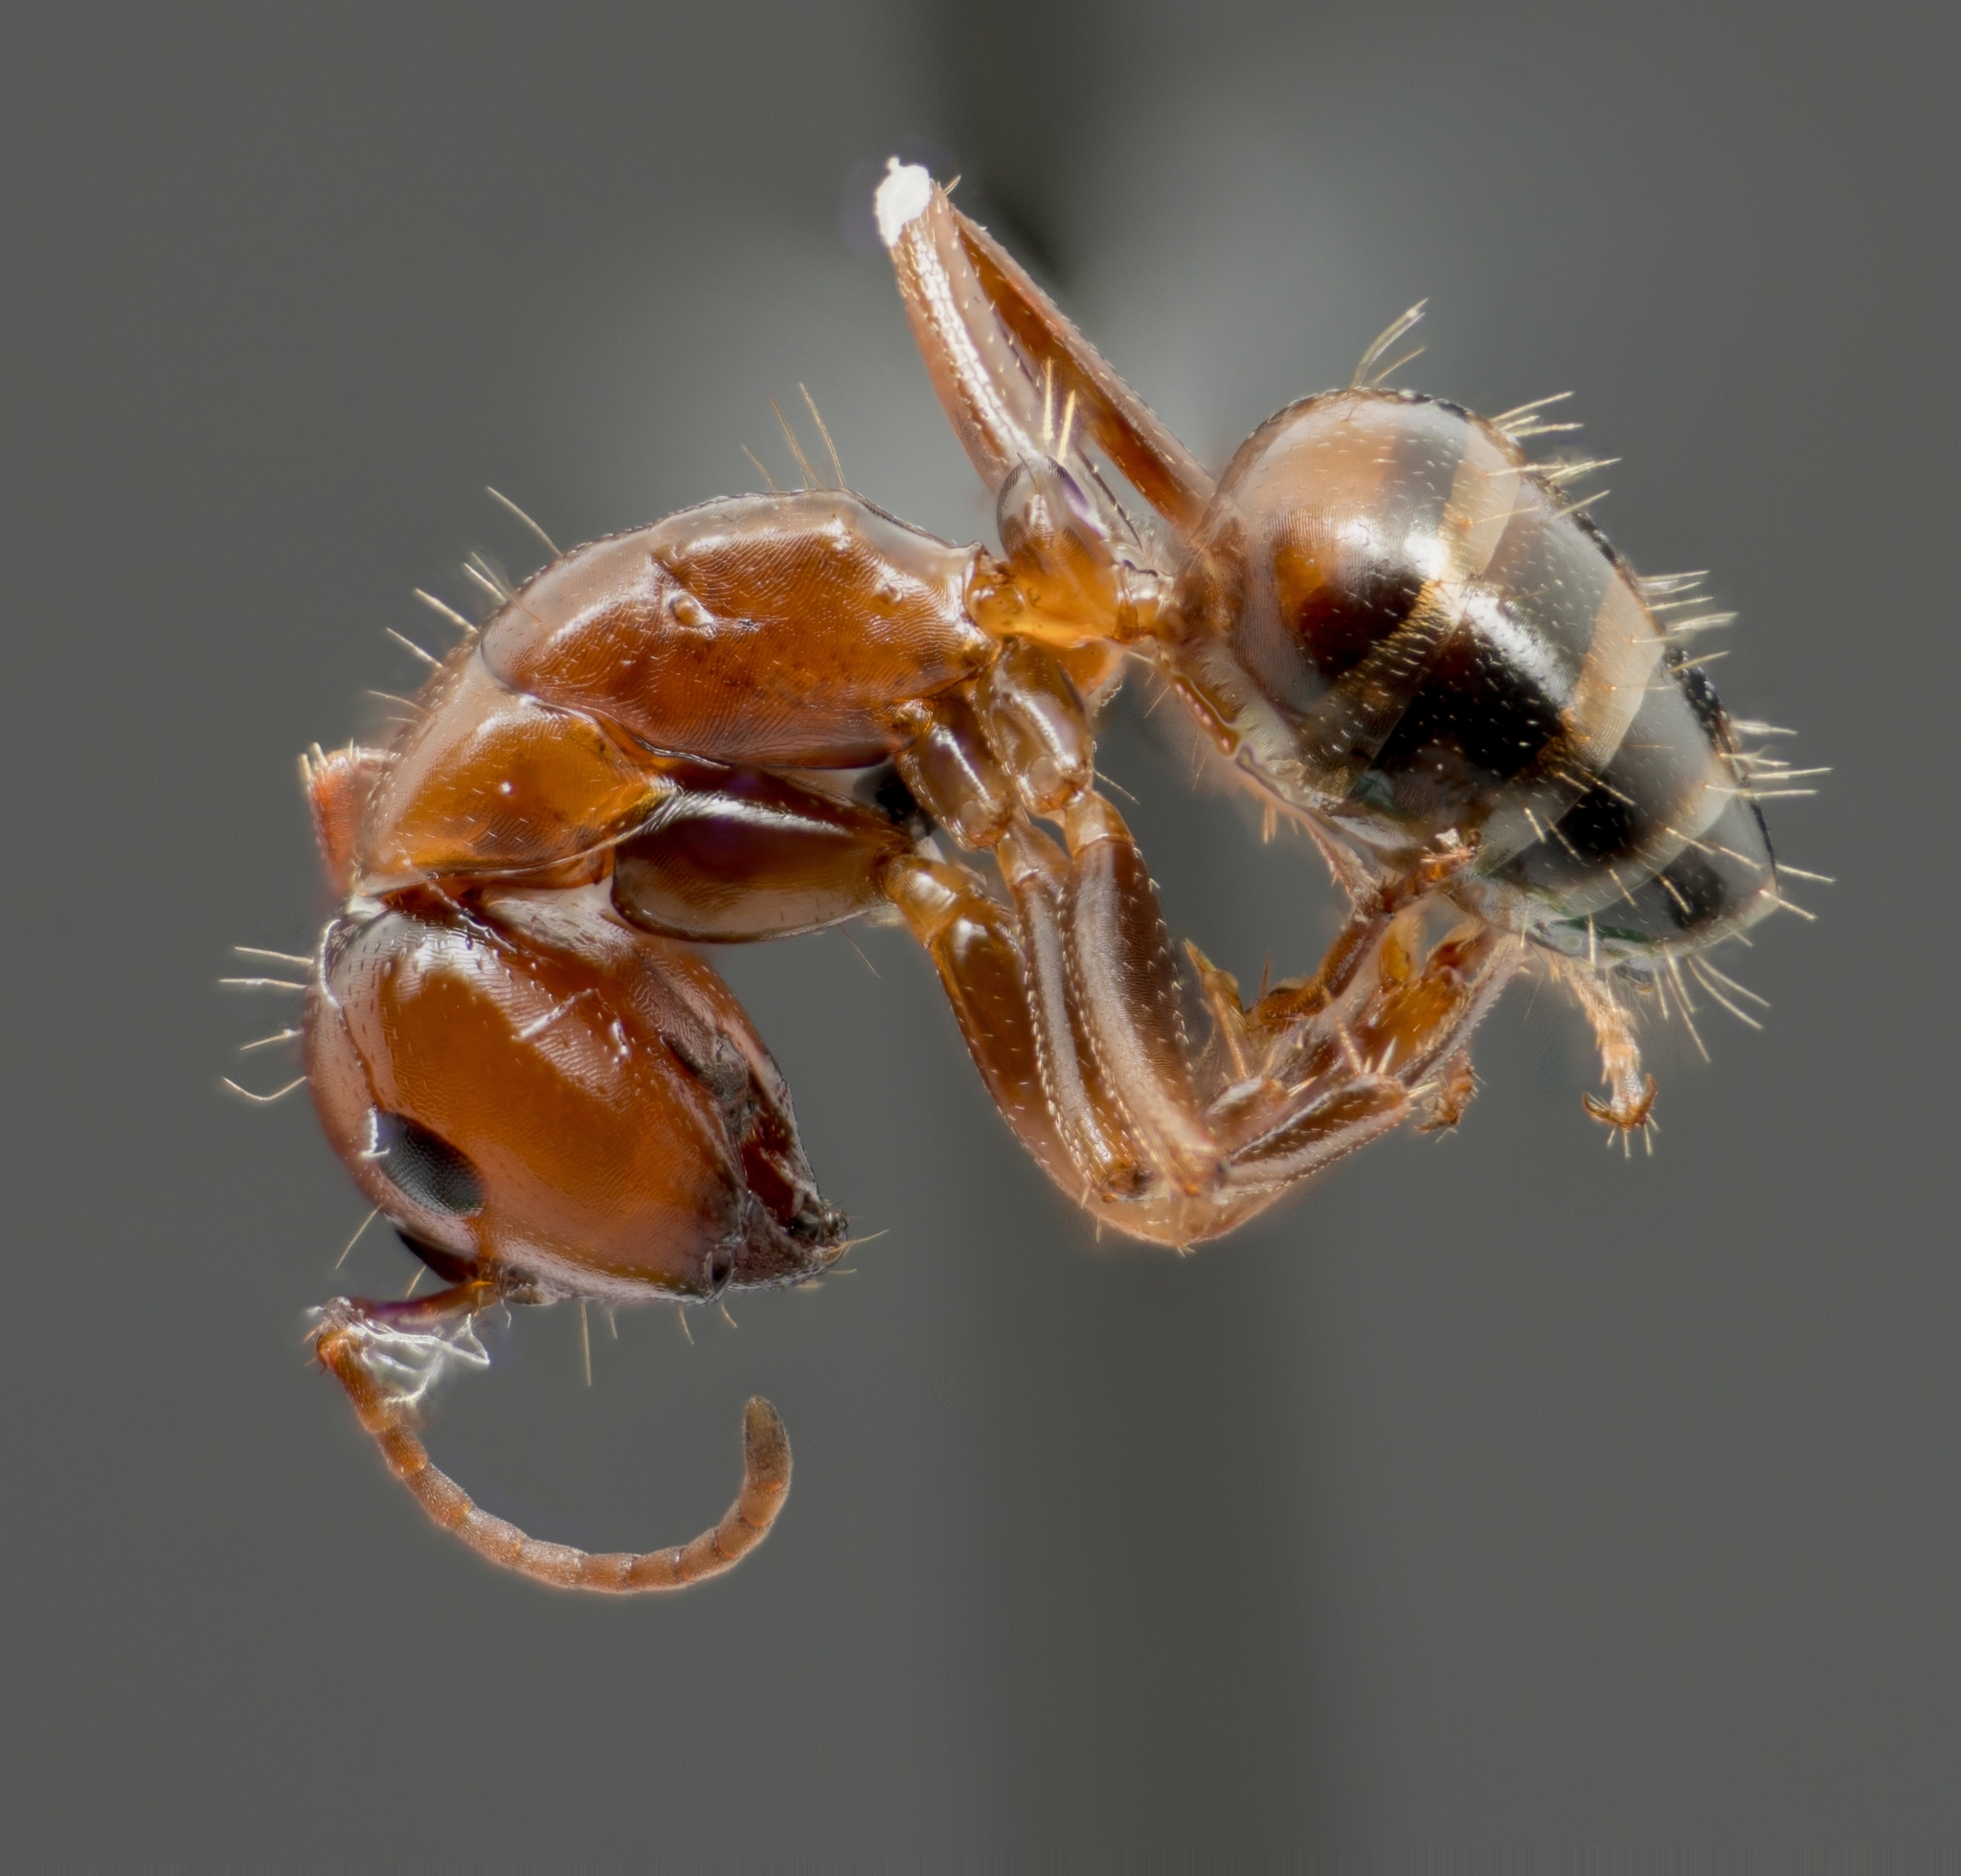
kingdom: Animalia
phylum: Arthropoda
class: Insecta
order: Hymenoptera
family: Formicidae
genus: Camponotus
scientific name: Camponotus essigi
